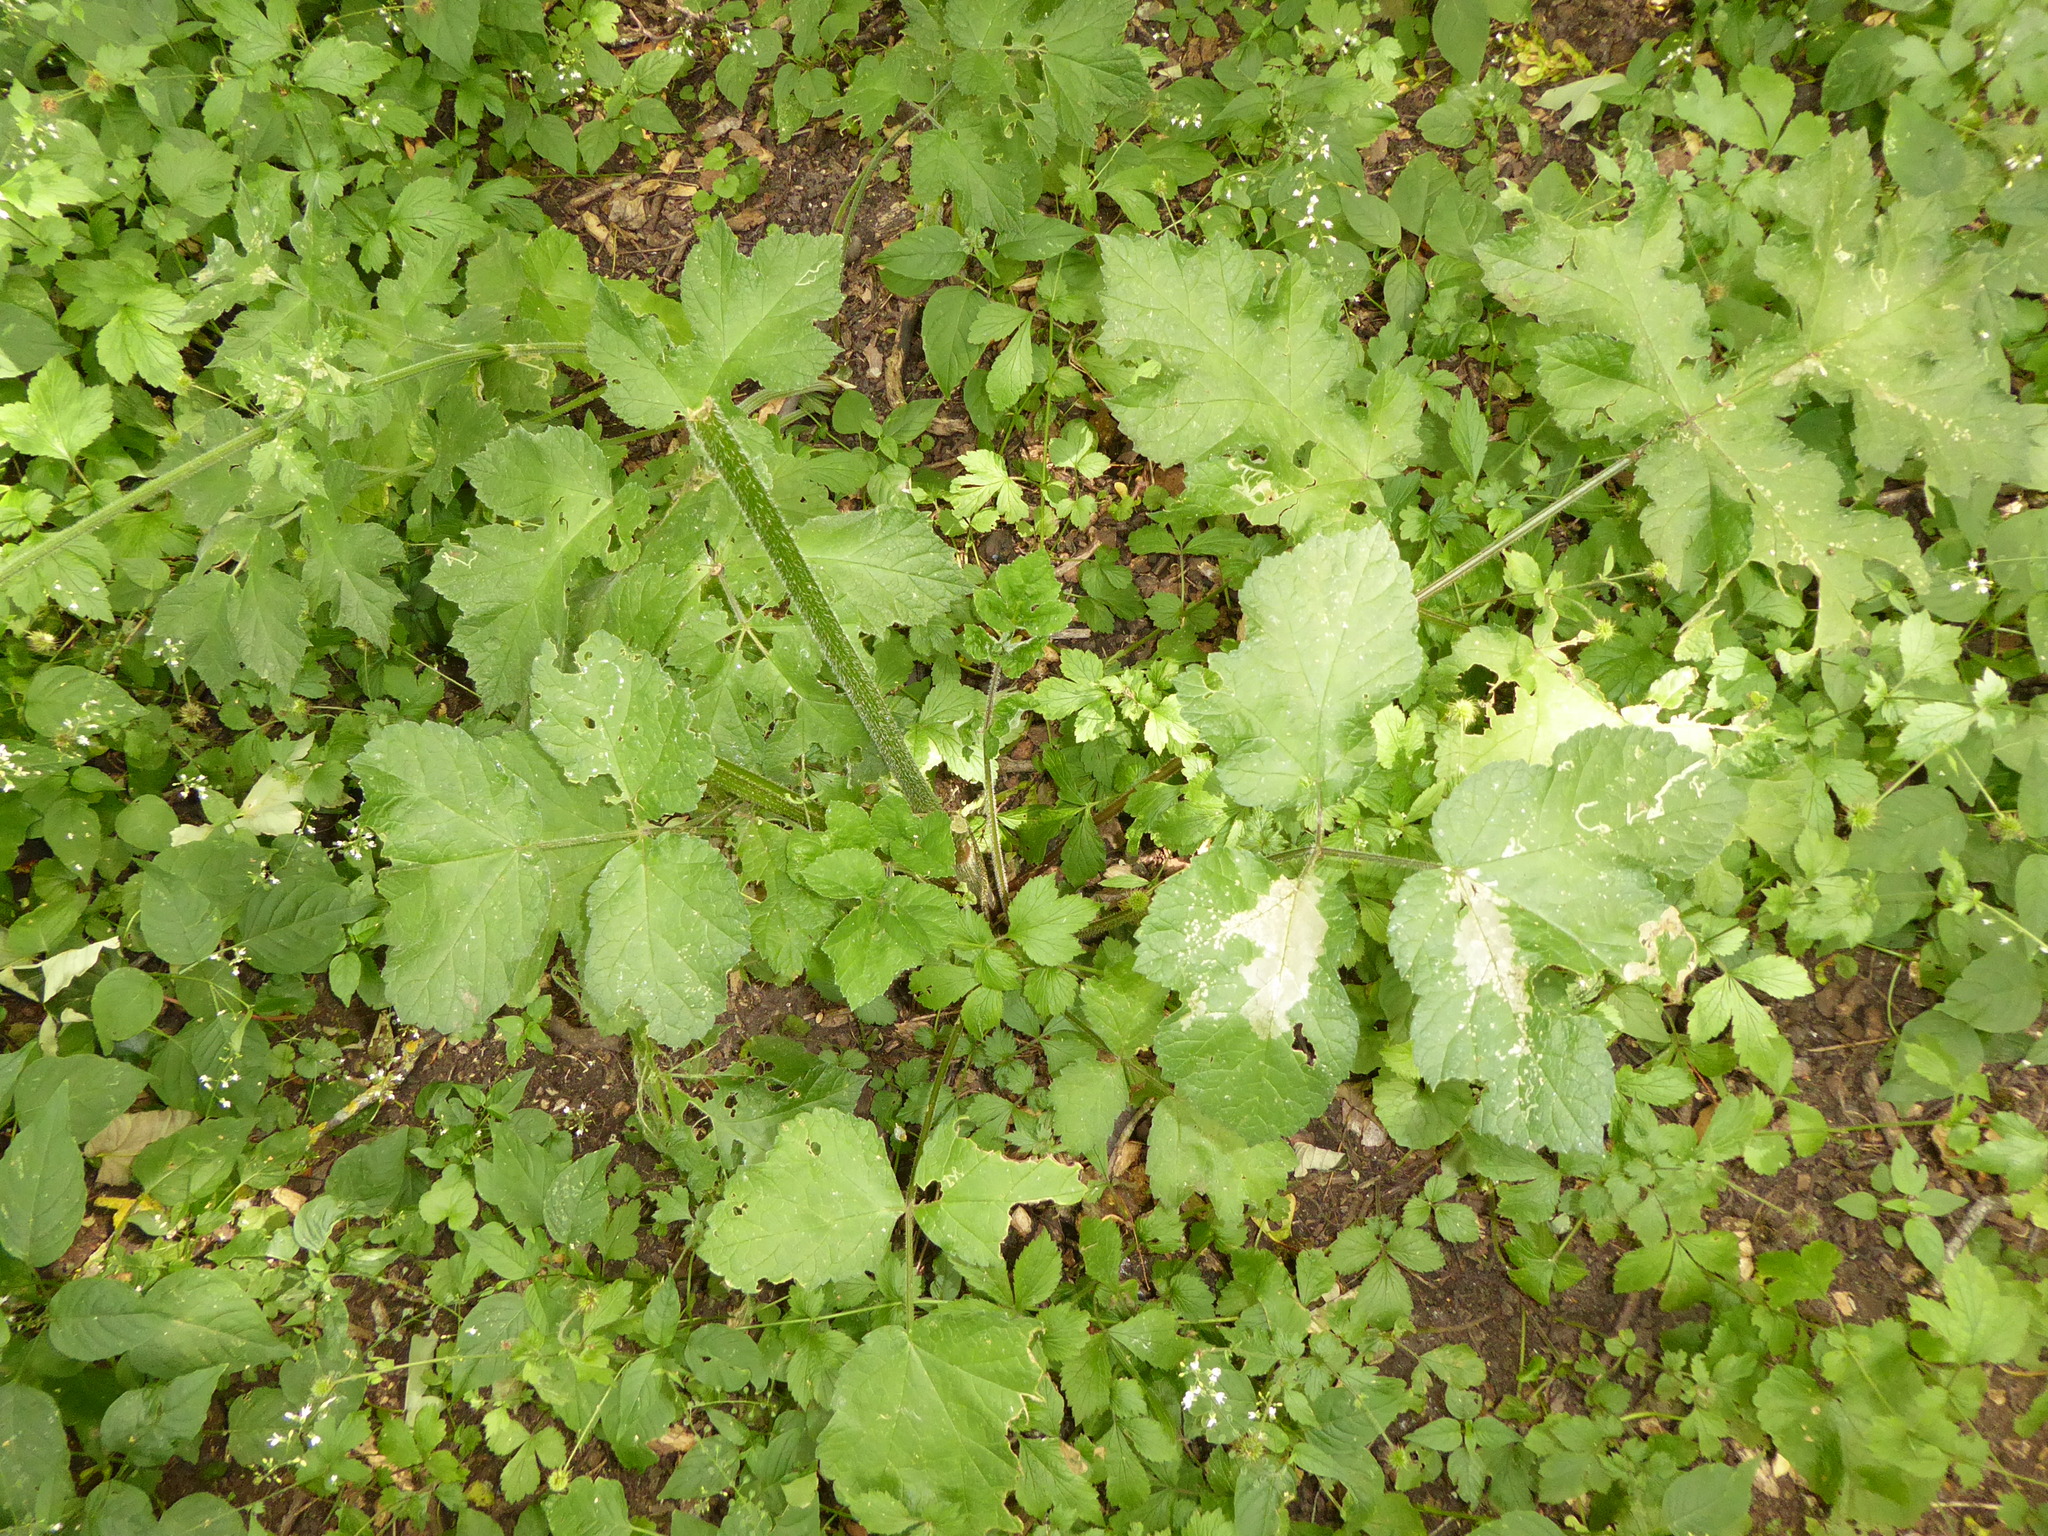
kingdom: Plantae
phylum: Tracheophyta
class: Magnoliopsida
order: Apiales
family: Apiaceae
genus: Heracleum
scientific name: Heracleum sphondylium
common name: Hogweed
